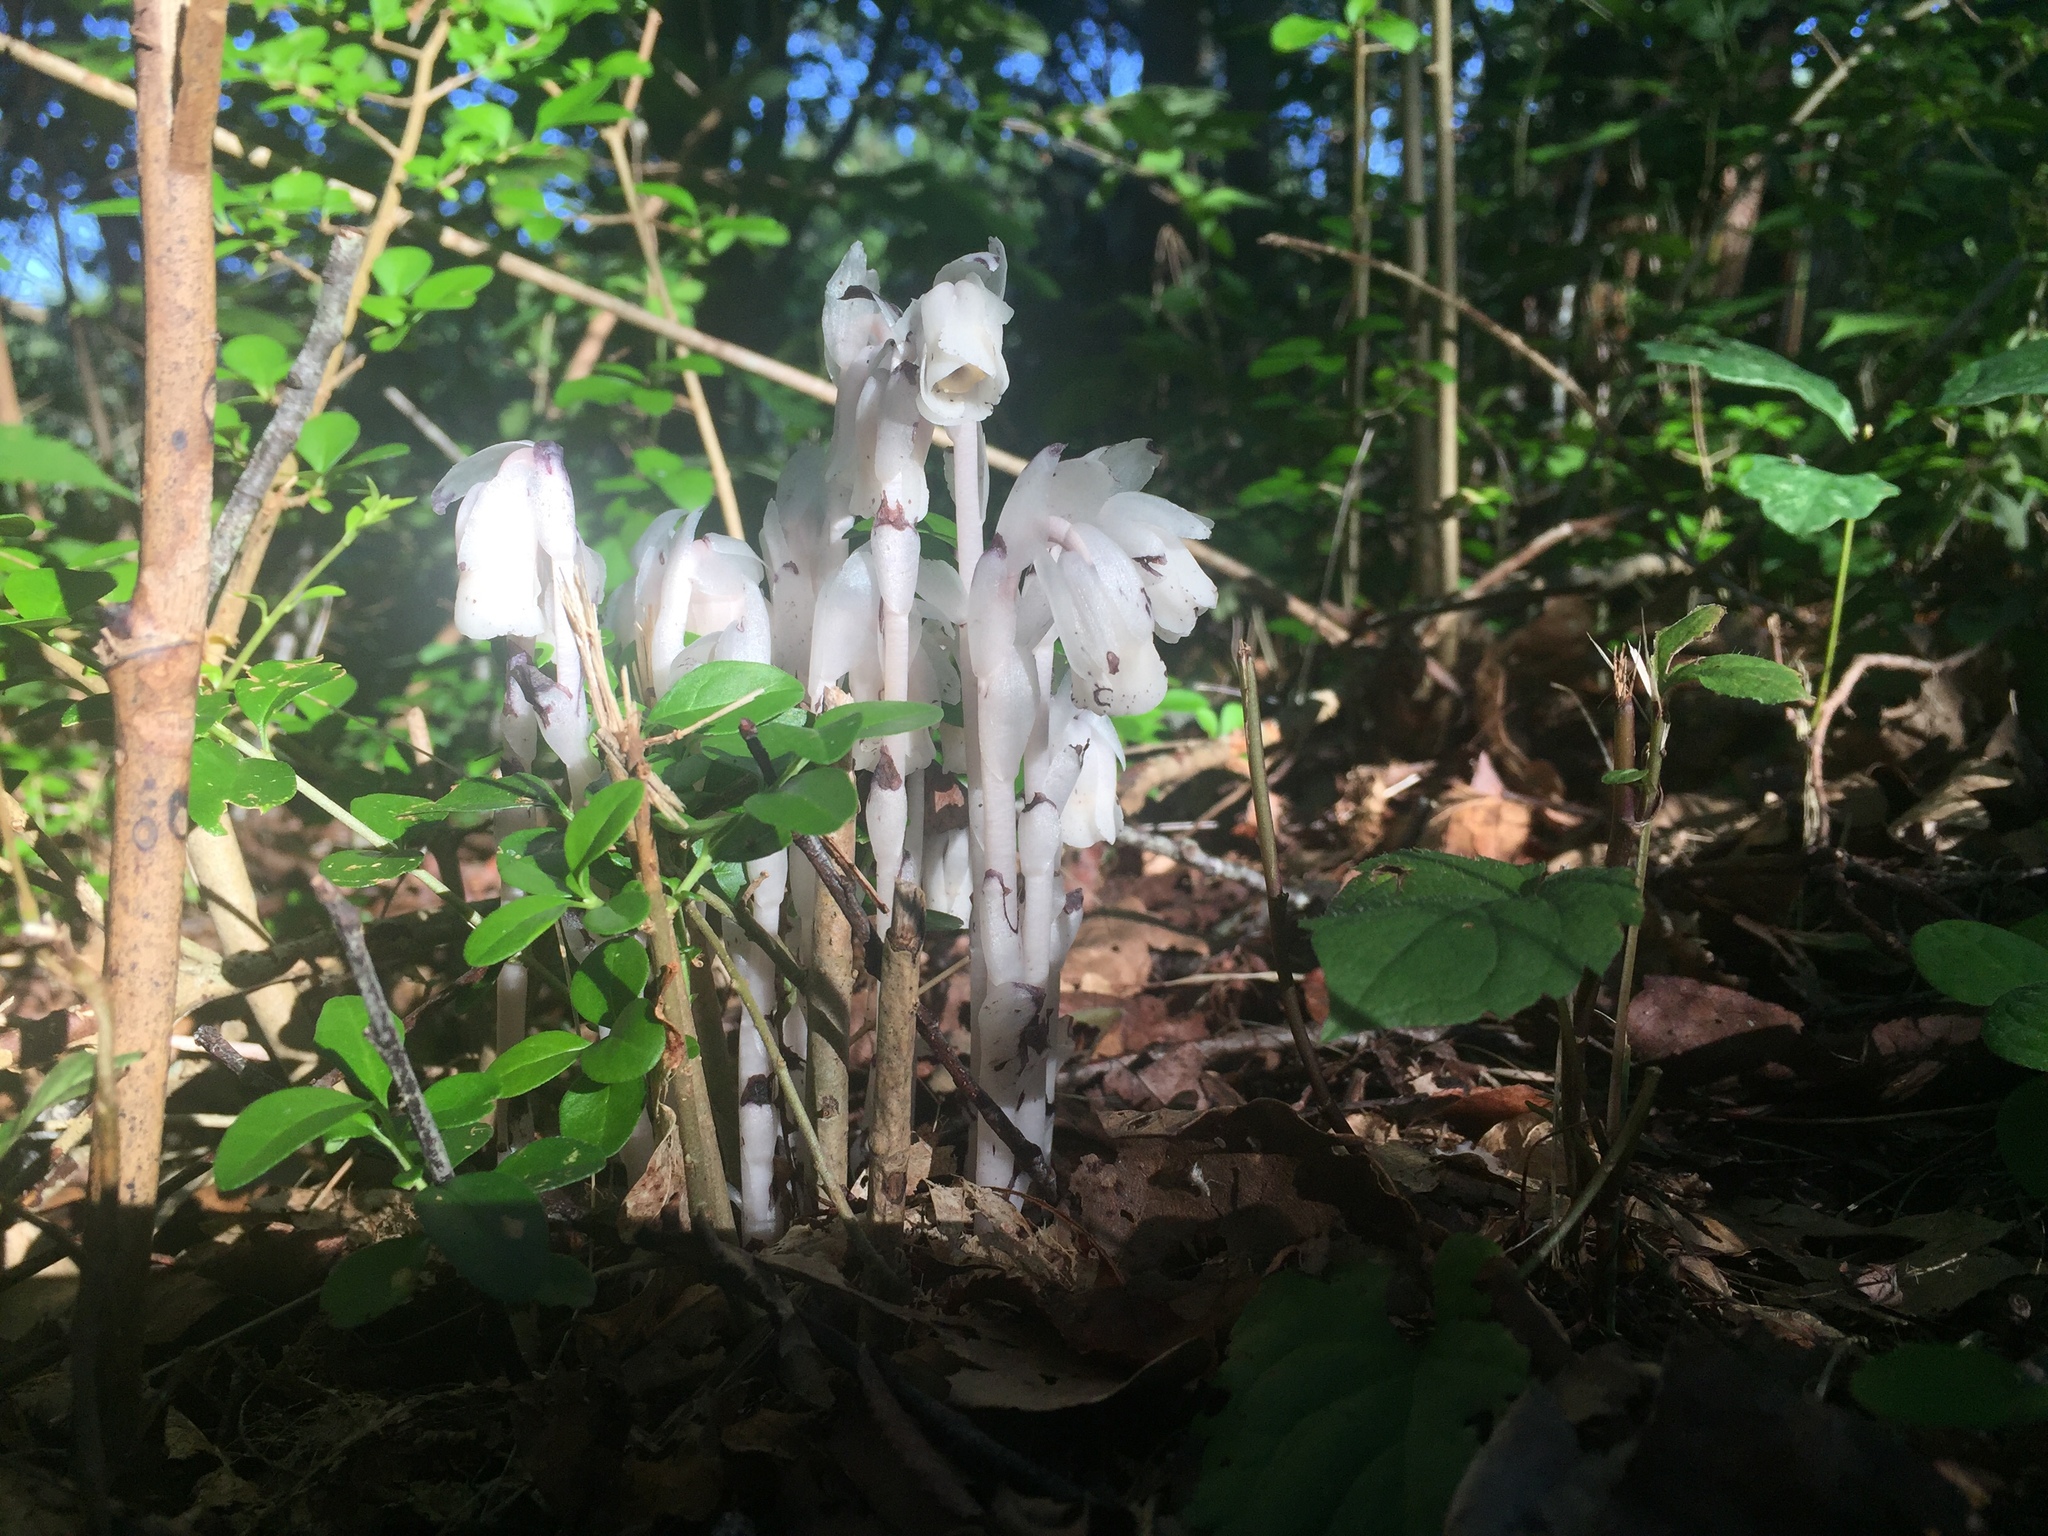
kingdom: Plantae
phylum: Tracheophyta
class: Magnoliopsida
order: Ericales
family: Ericaceae
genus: Monotropa
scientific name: Monotropa uniflora
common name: Convulsion root
